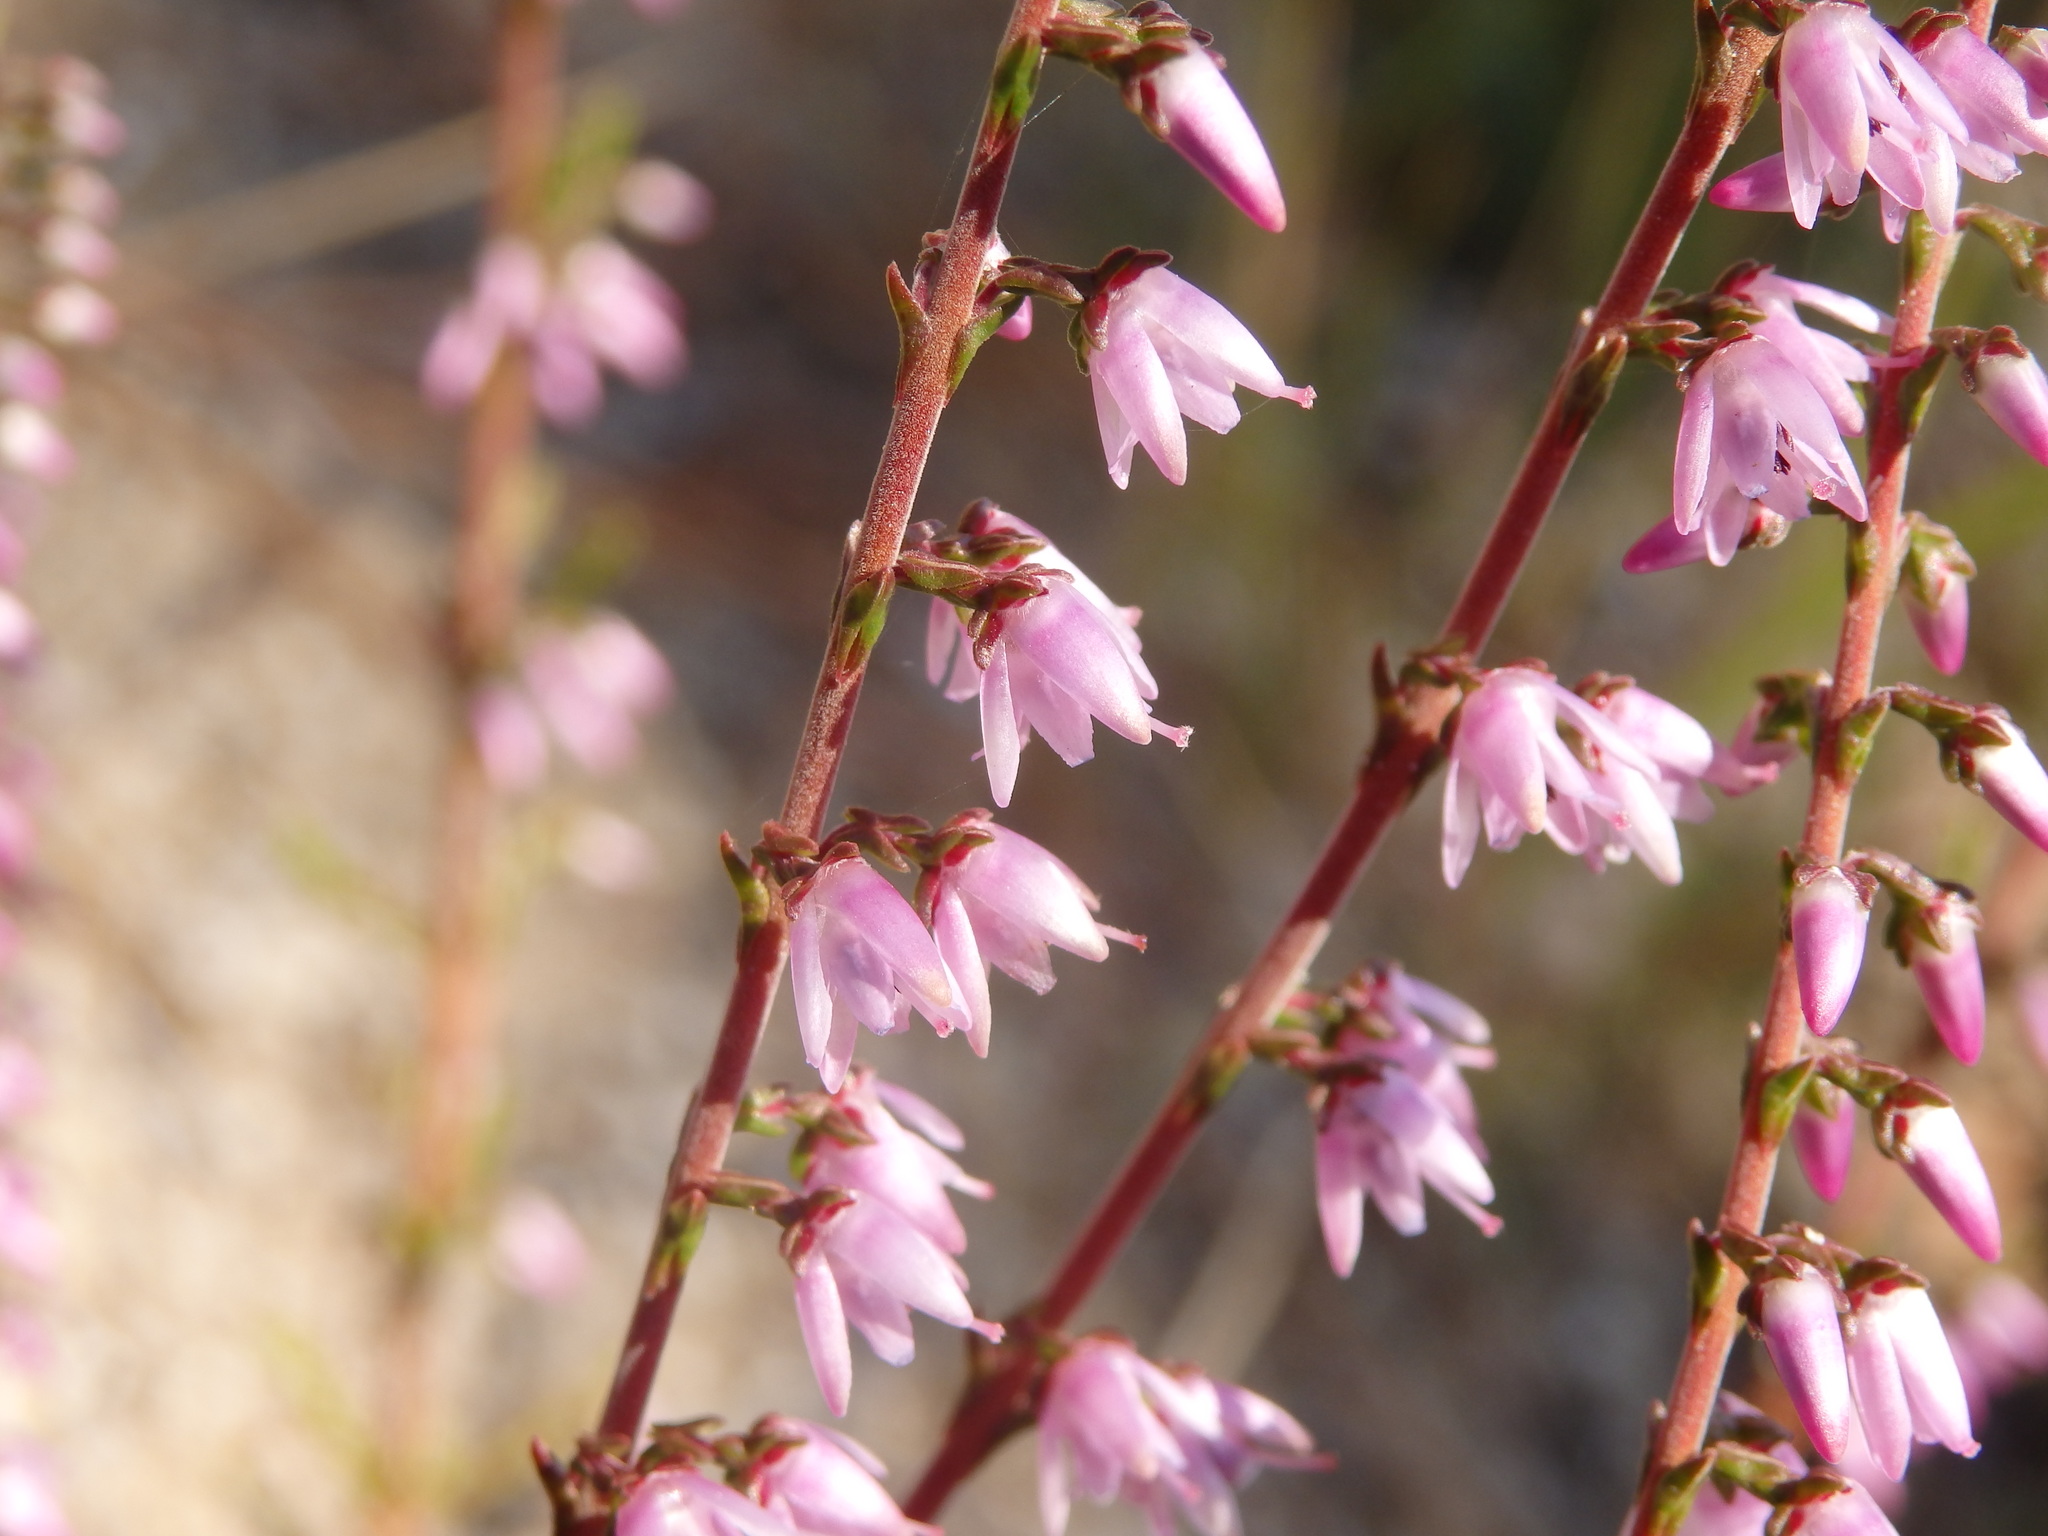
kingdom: Plantae
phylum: Tracheophyta
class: Magnoliopsida
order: Ericales
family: Ericaceae
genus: Calluna
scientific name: Calluna vulgaris
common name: Heather
